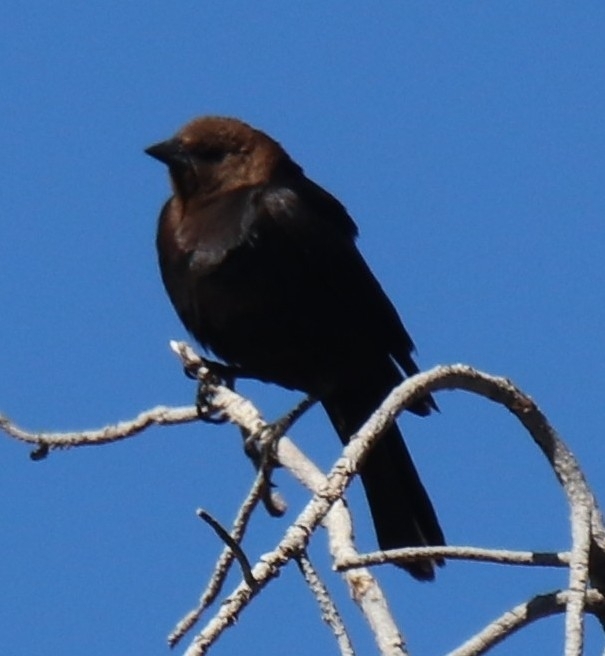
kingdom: Animalia
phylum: Chordata
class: Aves
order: Passeriformes
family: Icteridae
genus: Molothrus
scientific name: Molothrus ater
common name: Brown-headed cowbird
